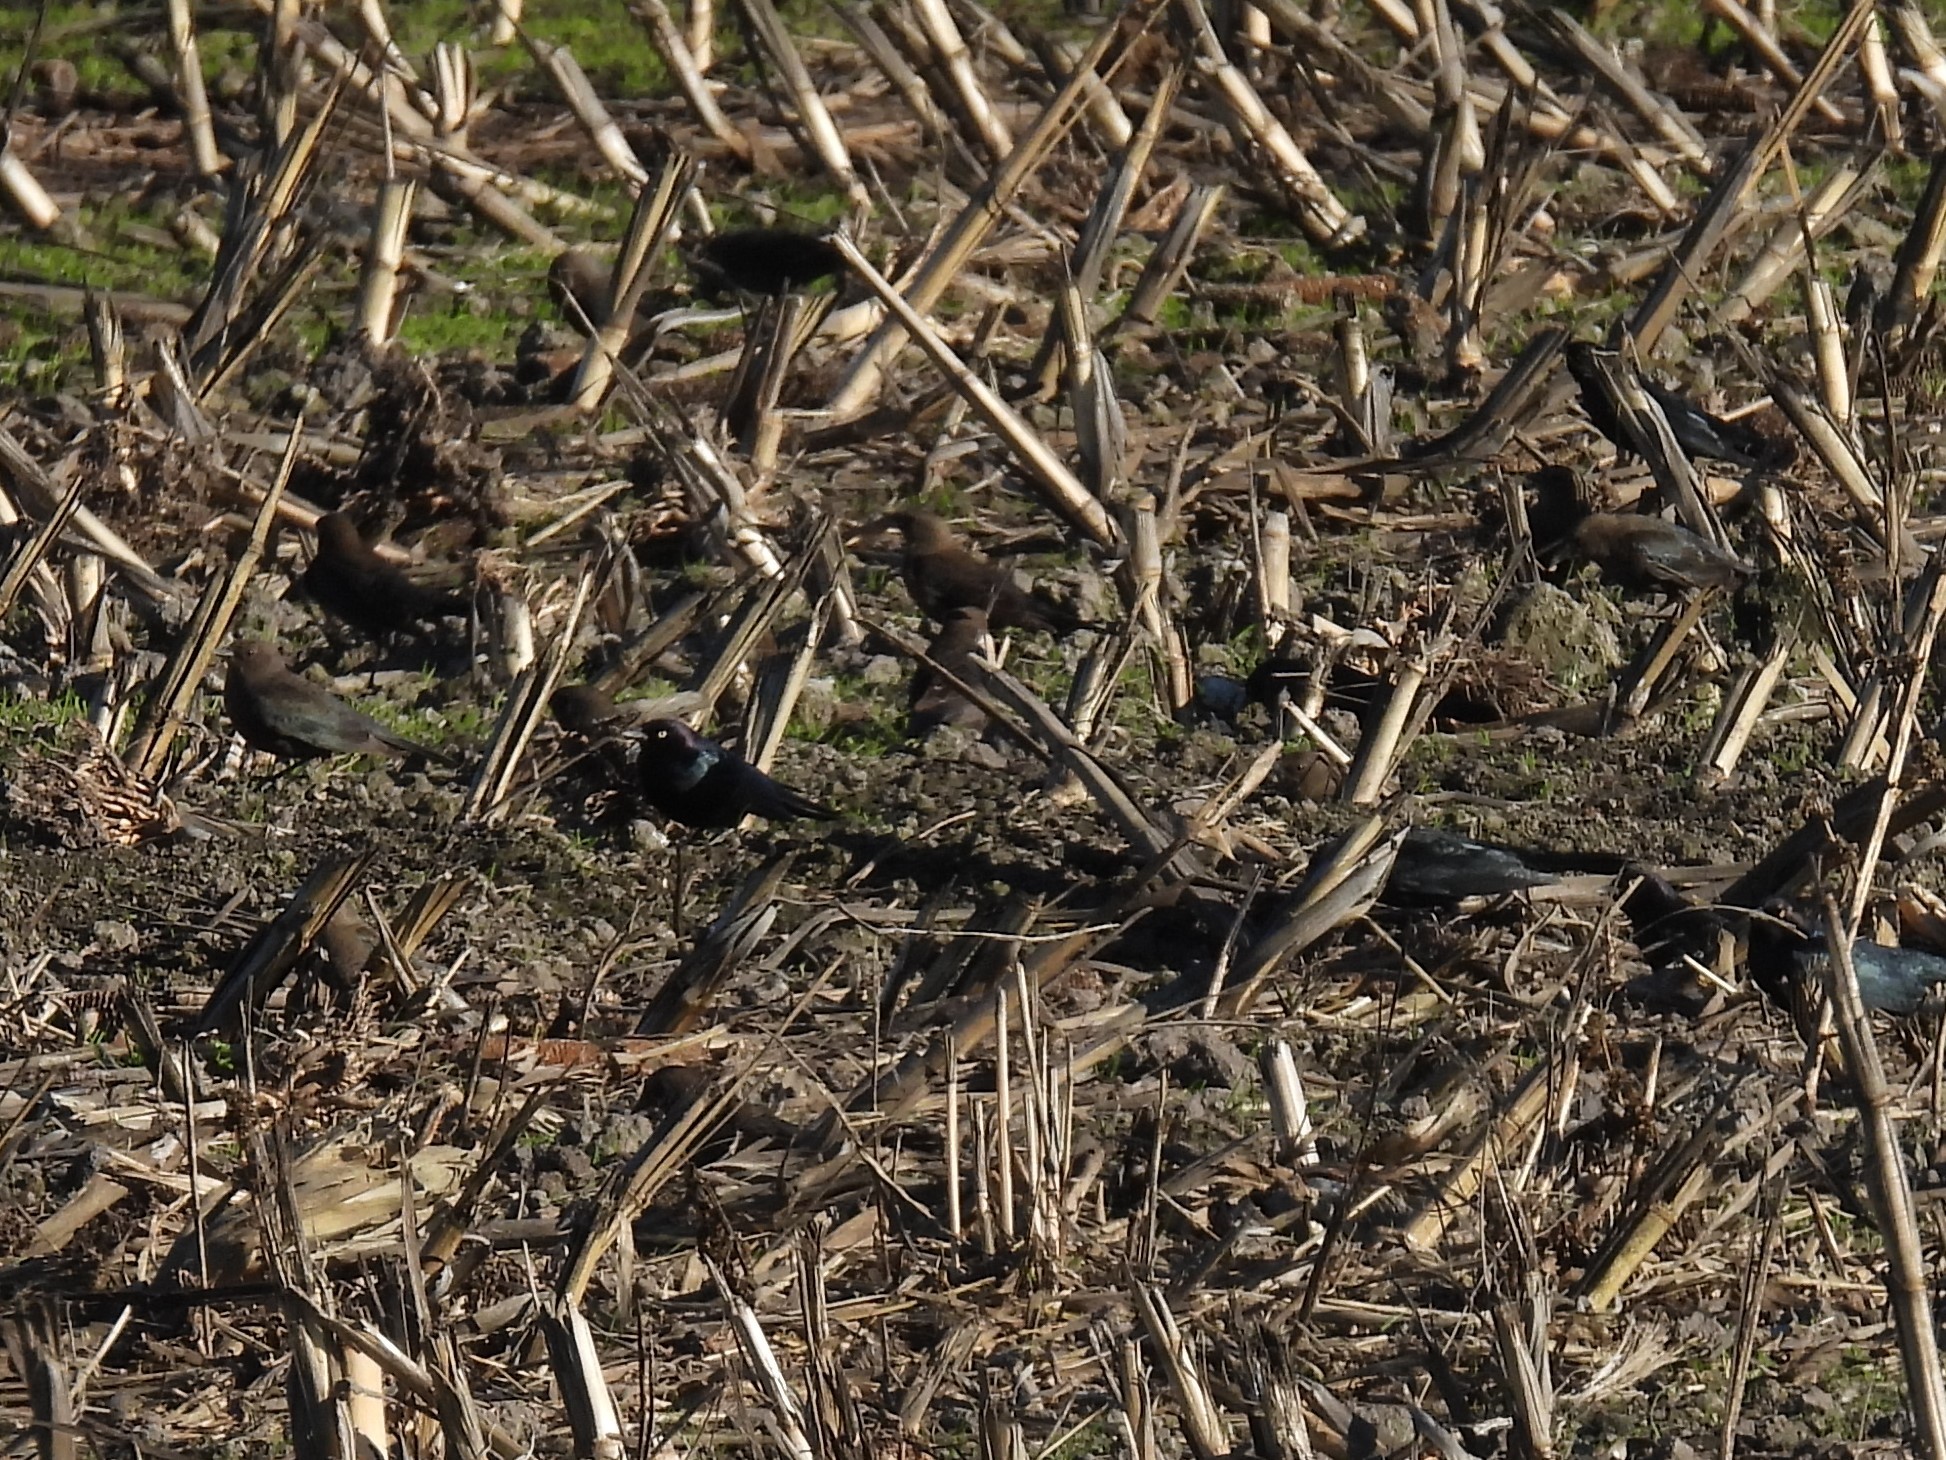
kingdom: Animalia
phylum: Chordata
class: Aves
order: Passeriformes
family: Icteridae
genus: Euphagus
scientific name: Euphagus cyanocephalus
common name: Brewer's blackbird
